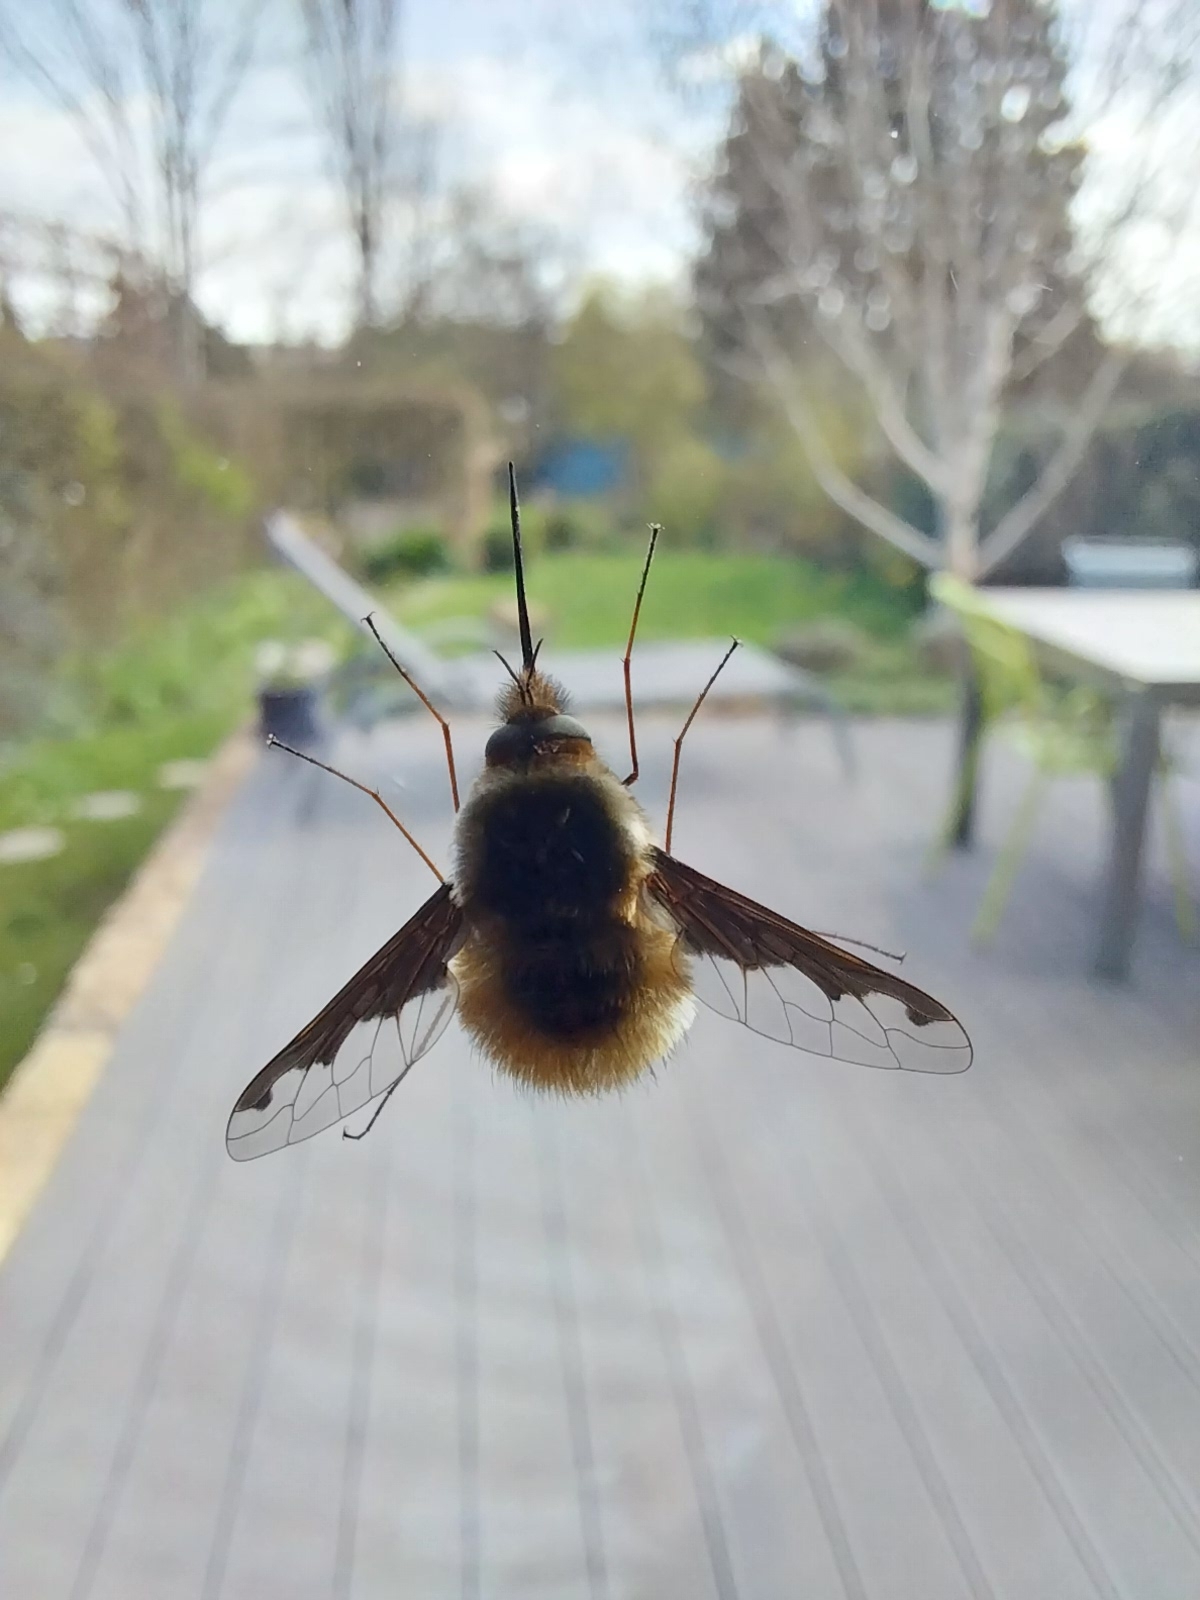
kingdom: Animalia
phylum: Arthropoda
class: Insecta
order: Diptera
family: Bombyliidae
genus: Bombylius
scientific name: Bombylius major
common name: Bee fly
